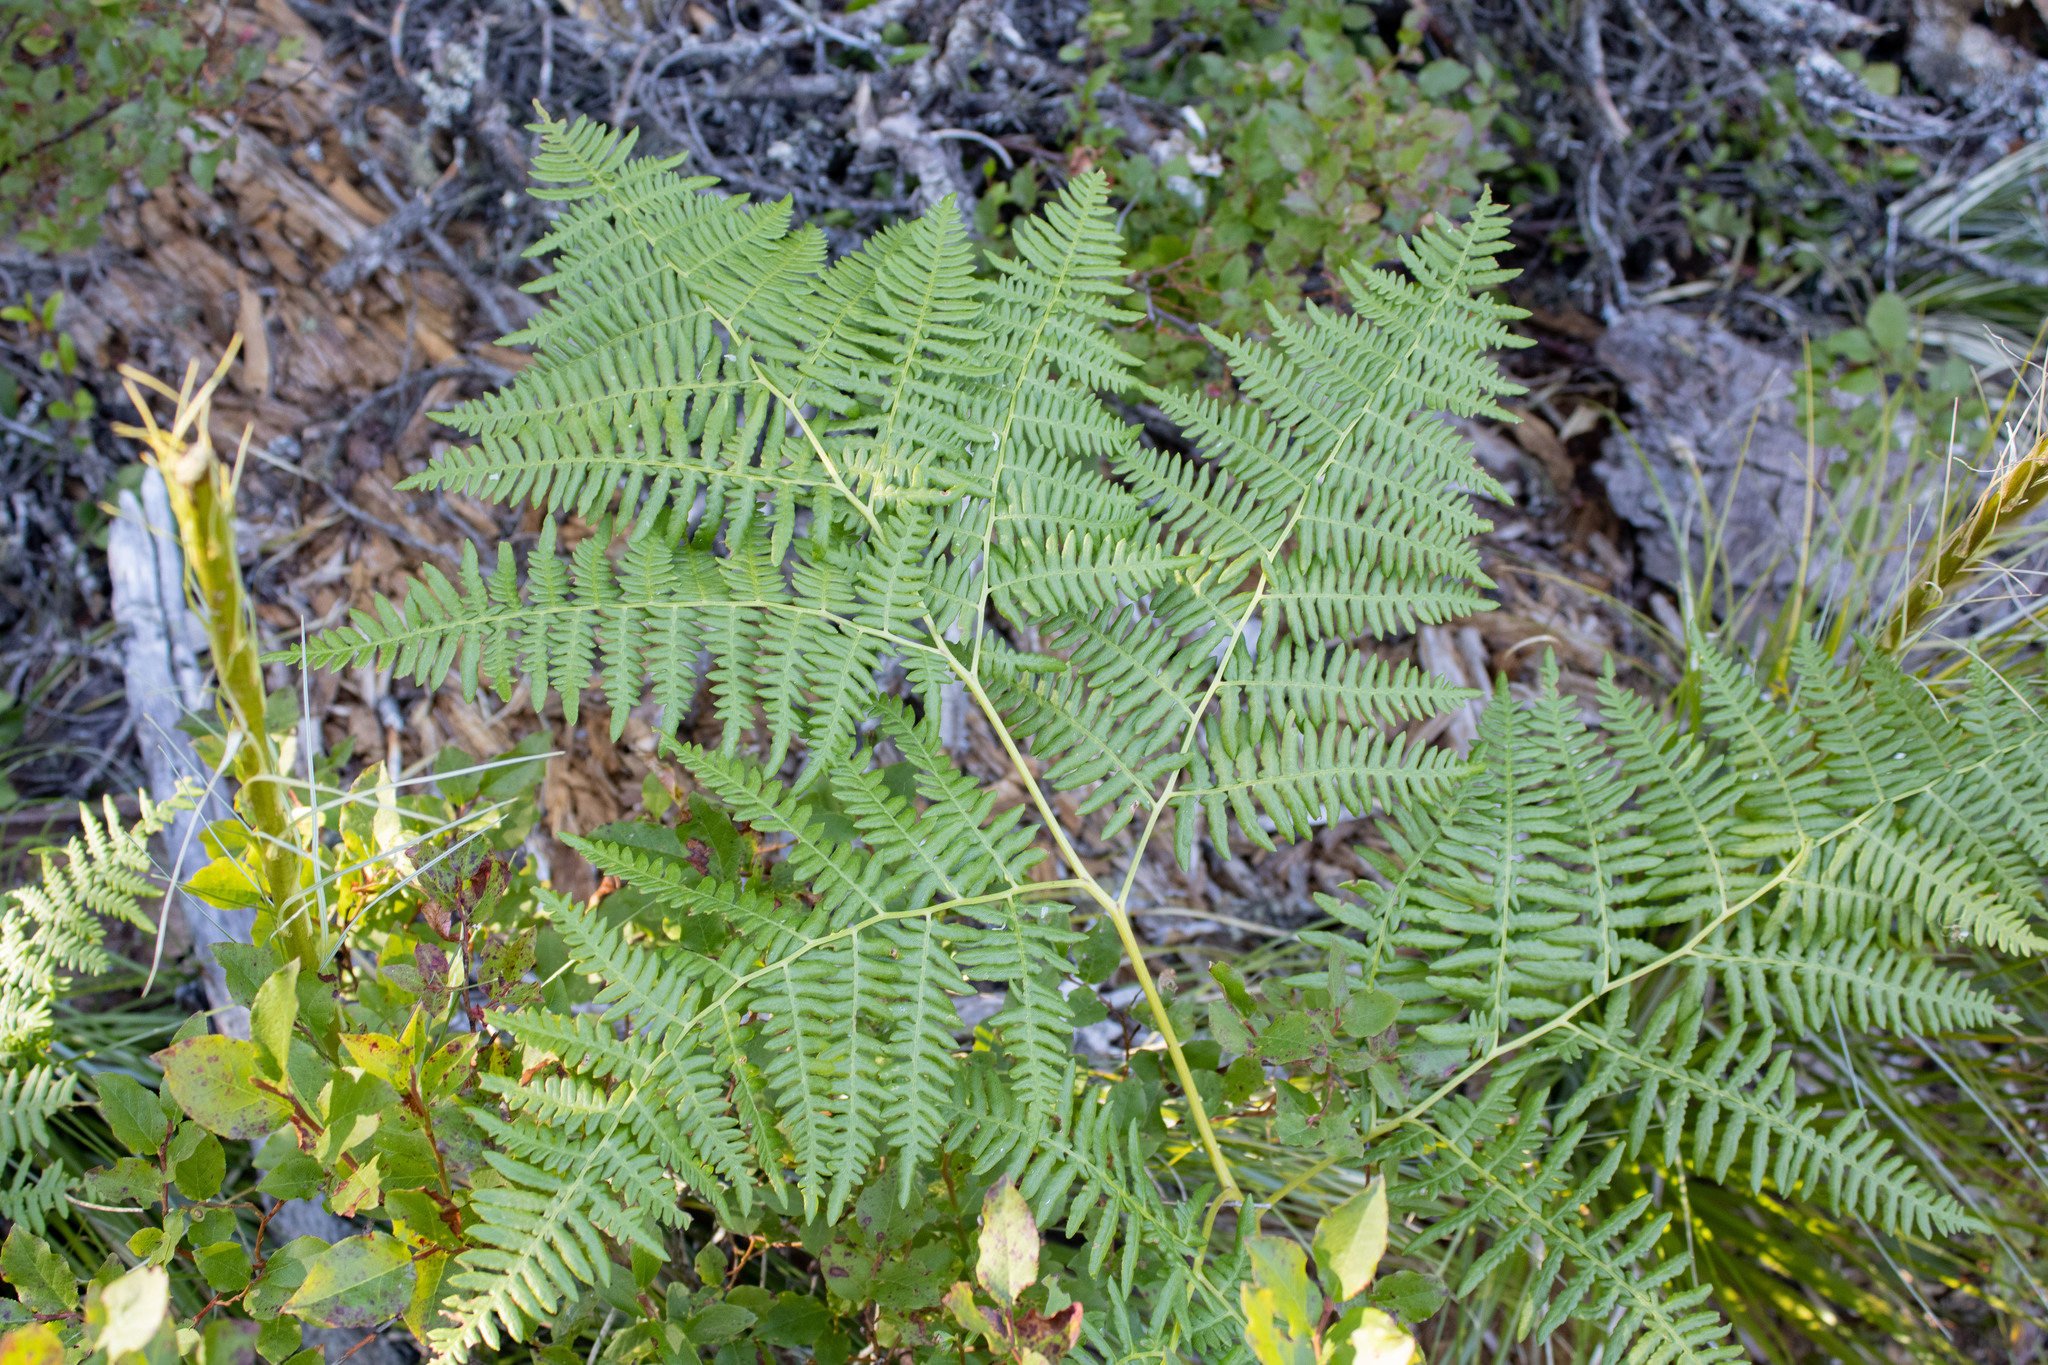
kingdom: Plantae
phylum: Tracheophyta
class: Polypodiopsida
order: Polypodiales
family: Dennstaedtiaceae
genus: Pteridium
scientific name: Pteridium aquilinum
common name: Bracken
